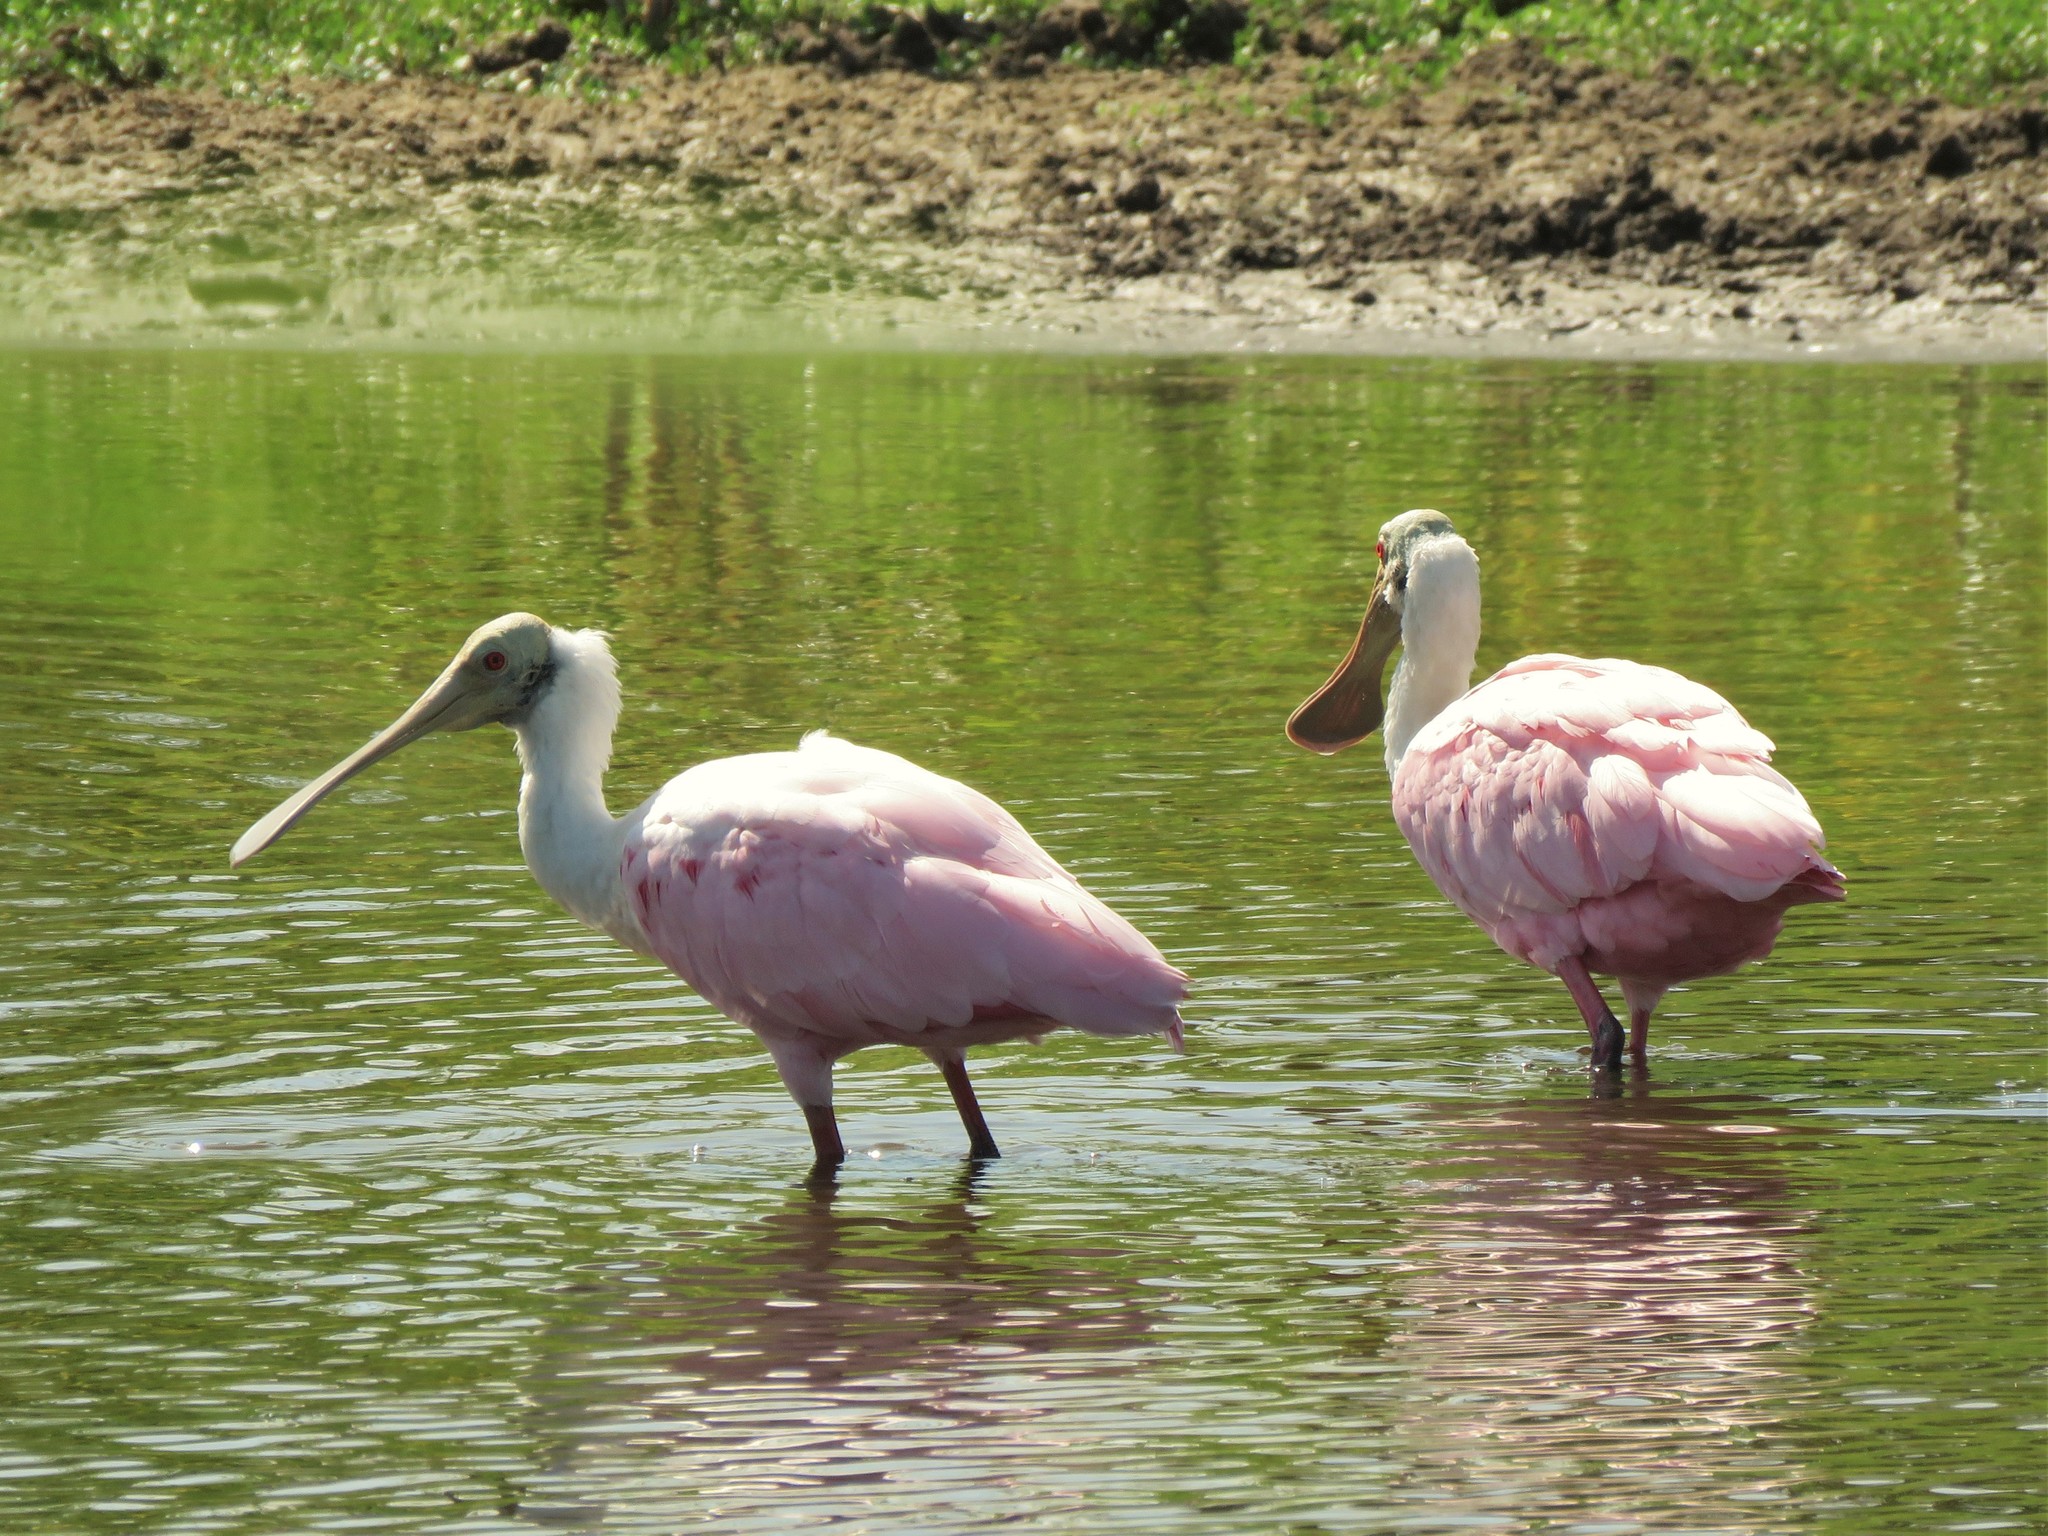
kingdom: Animalia
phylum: Chordata
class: Aves
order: Pelecaniformes
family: Threskiornithidae
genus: Platalea
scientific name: Platalea ajaja
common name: Roseate spoonbill
